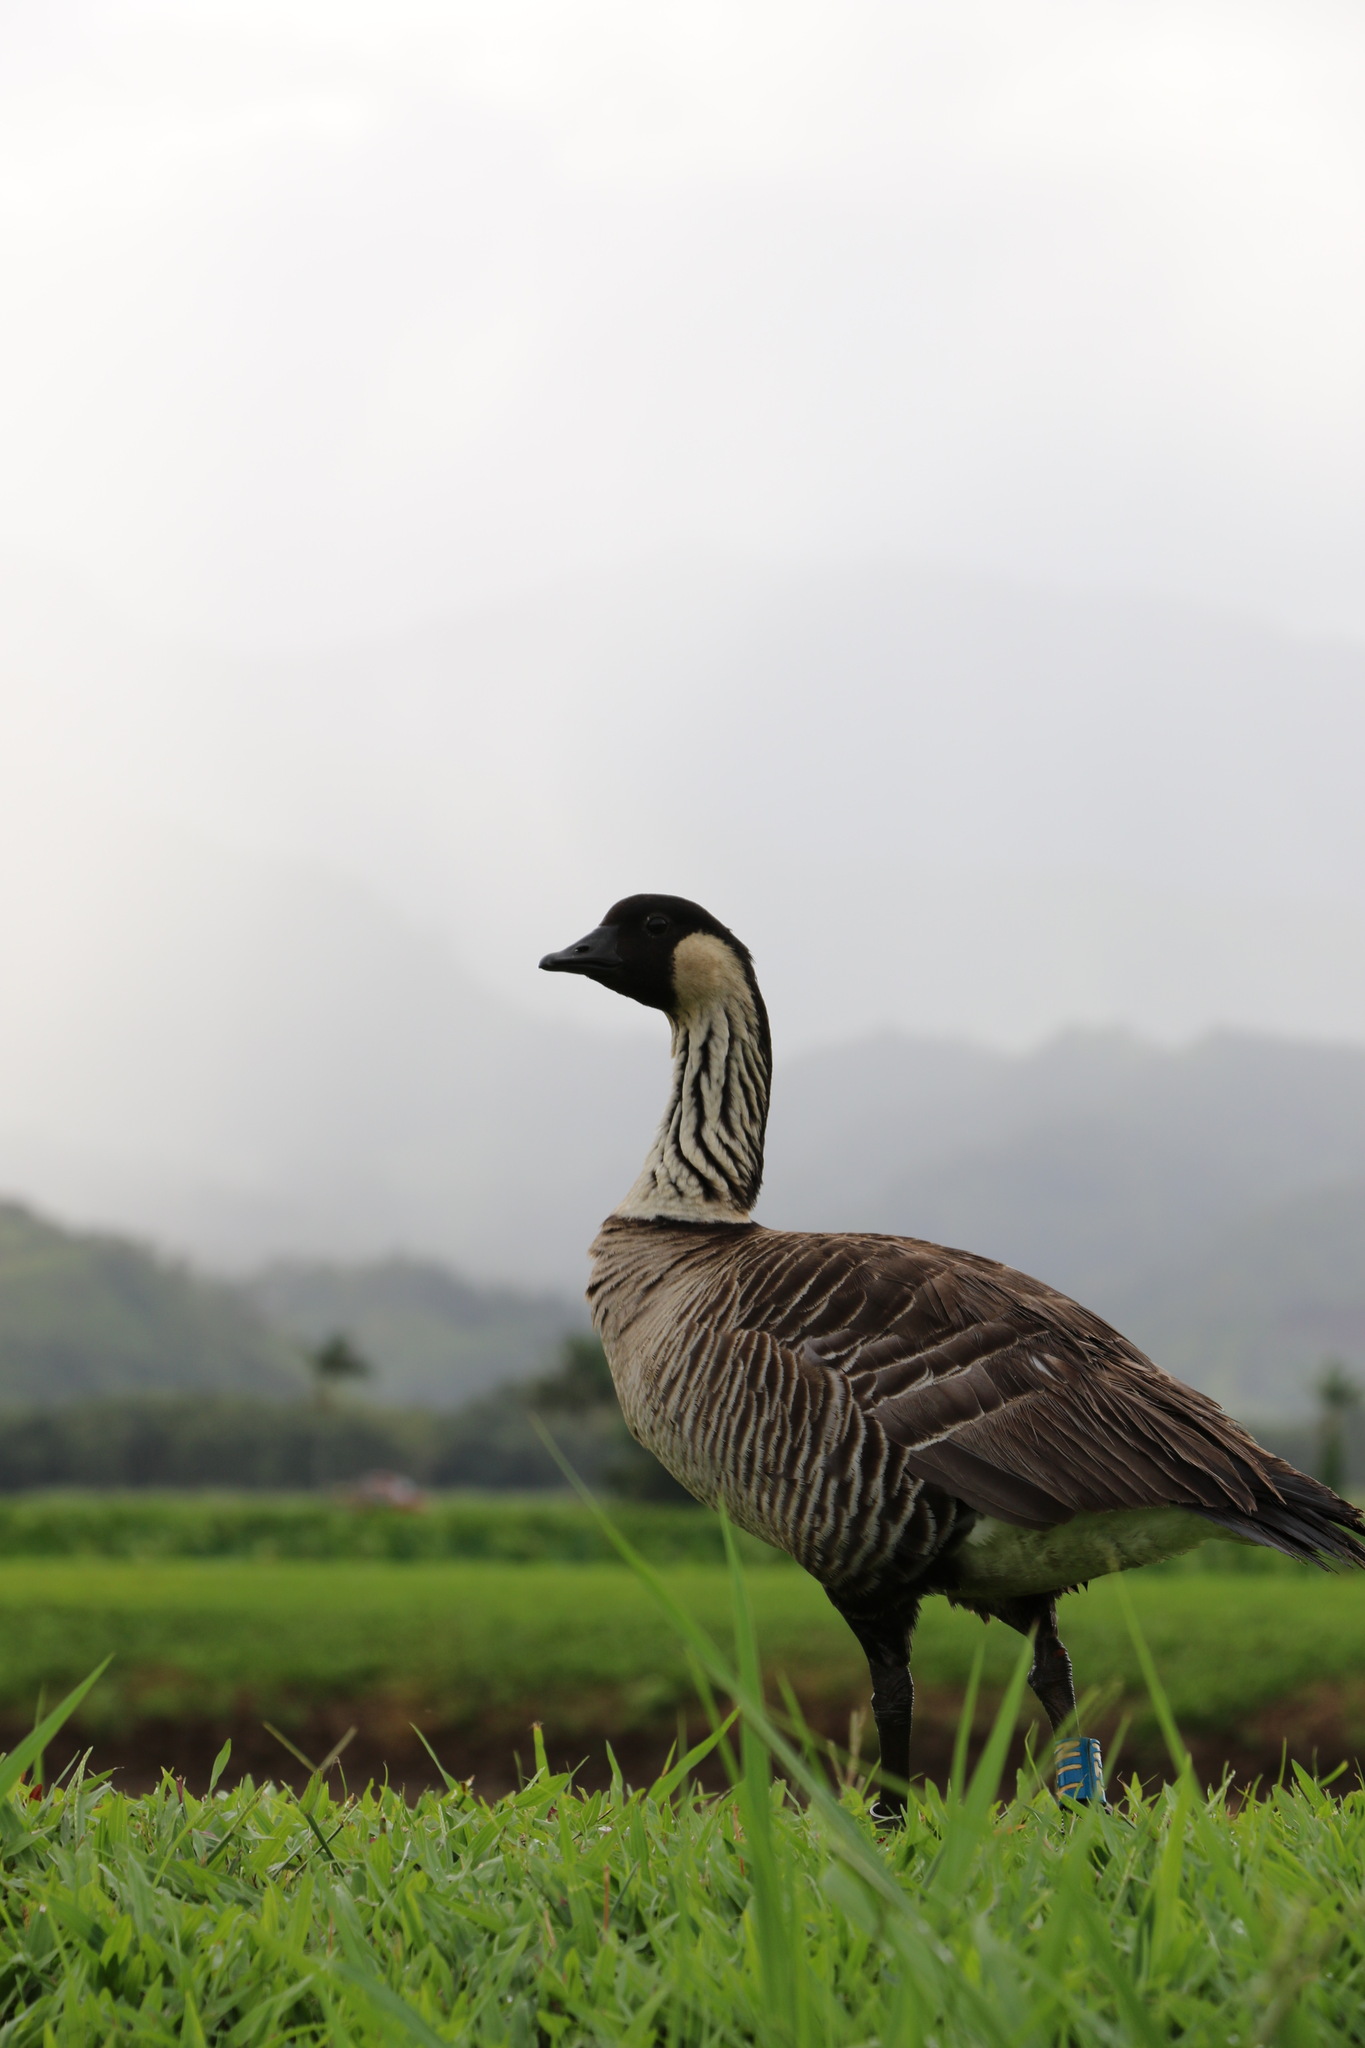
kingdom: Animalia
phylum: Chordata
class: Aves
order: Anseriformes
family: Anatidae
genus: Branta
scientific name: Branta sandvicensis
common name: Nene
